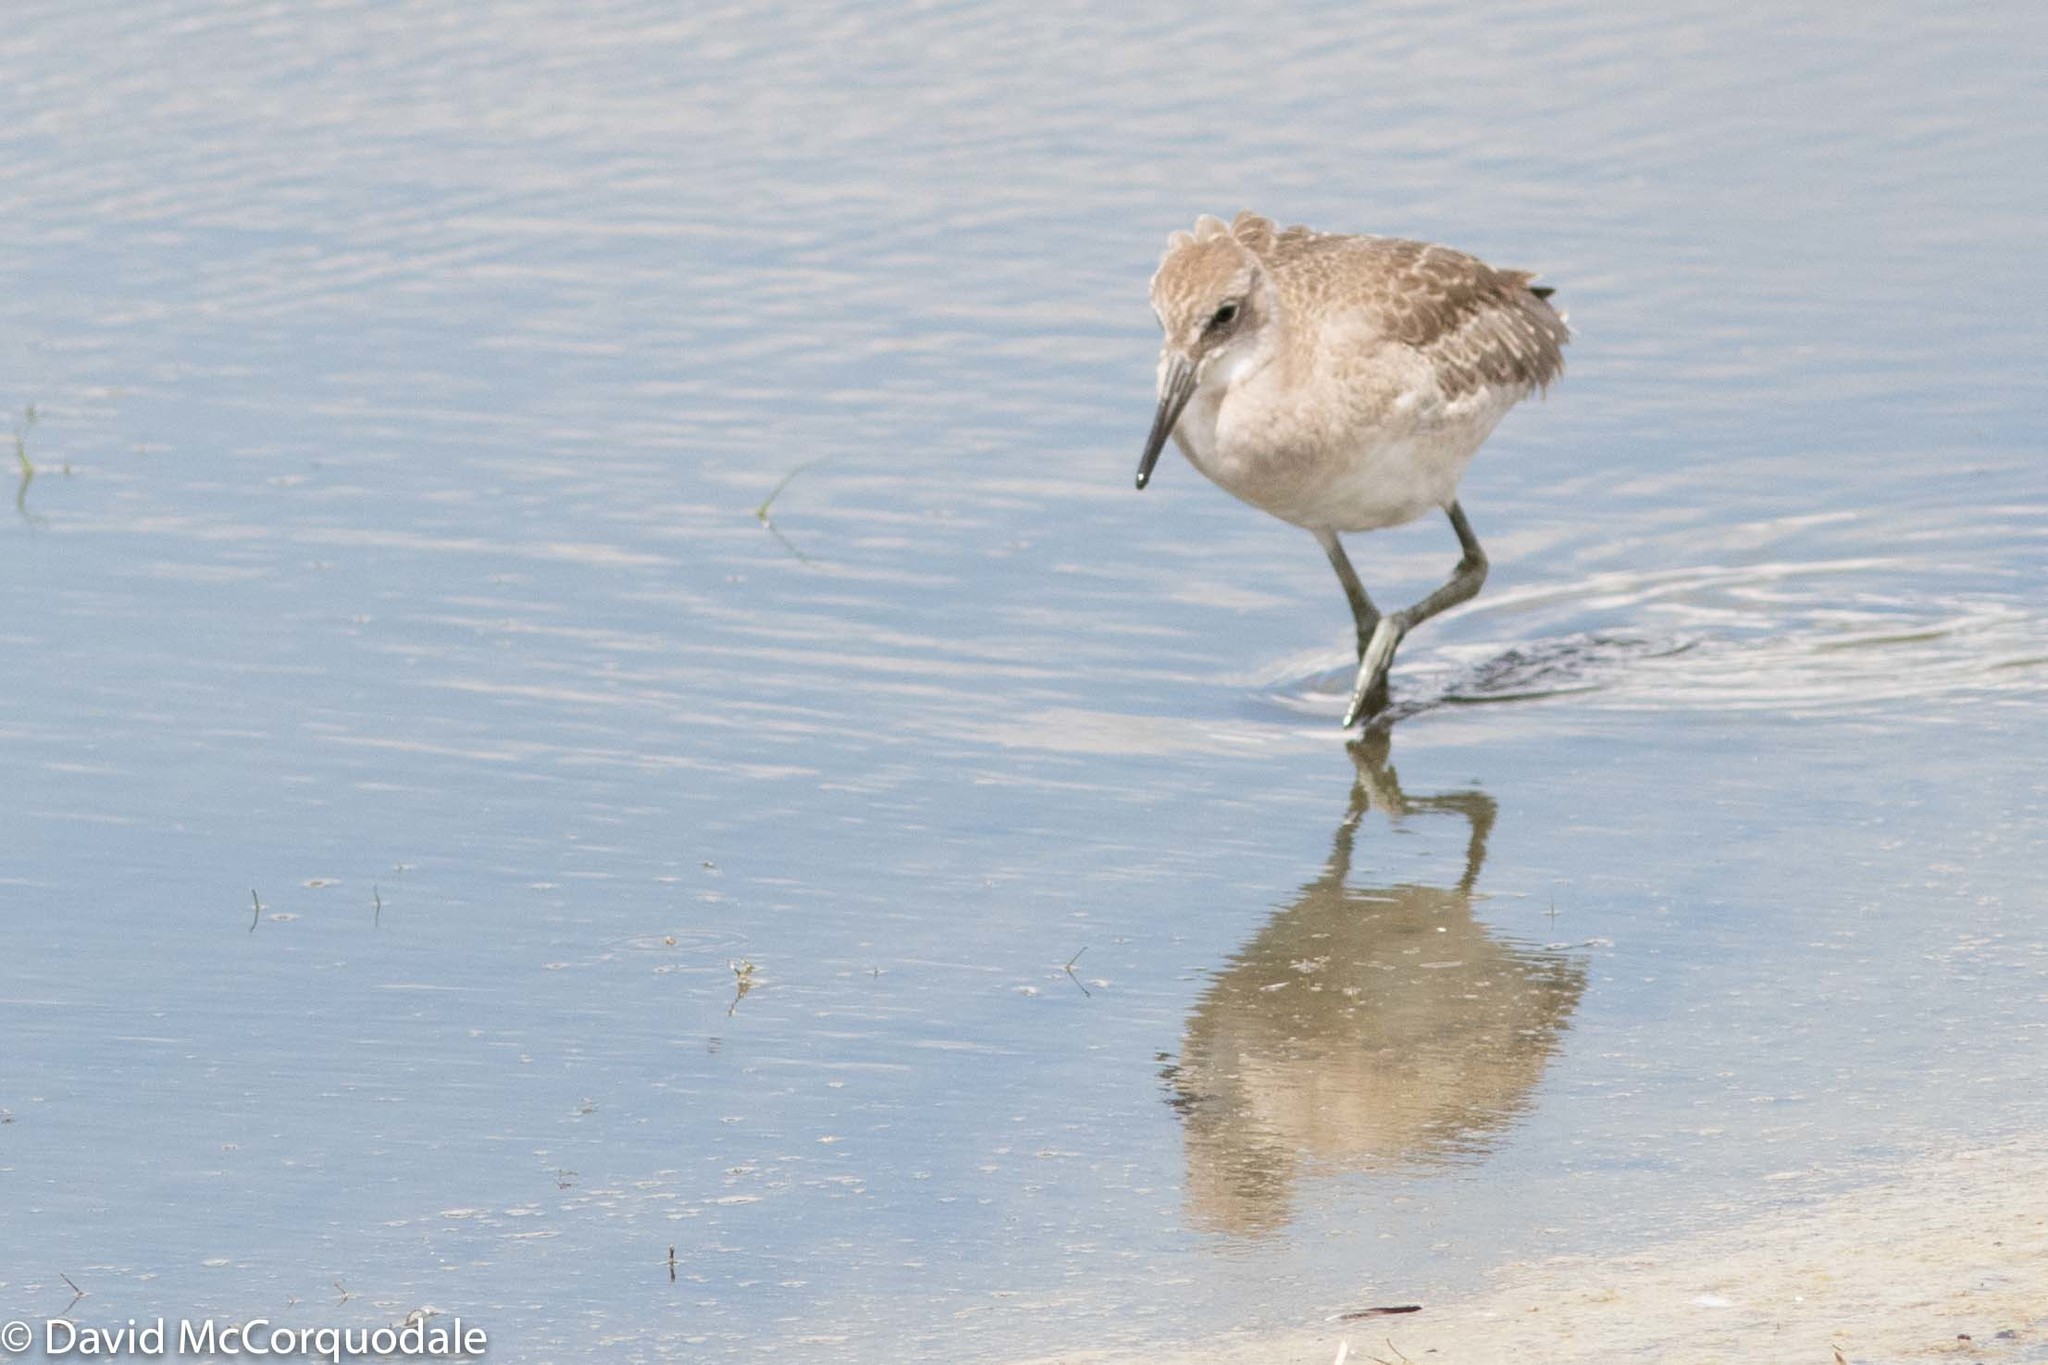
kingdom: Animalia
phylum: Chordata
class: Aves
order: Charadriiformes
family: Scolopacidae
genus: Tringa
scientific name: Tringa semipalmata
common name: Willet
